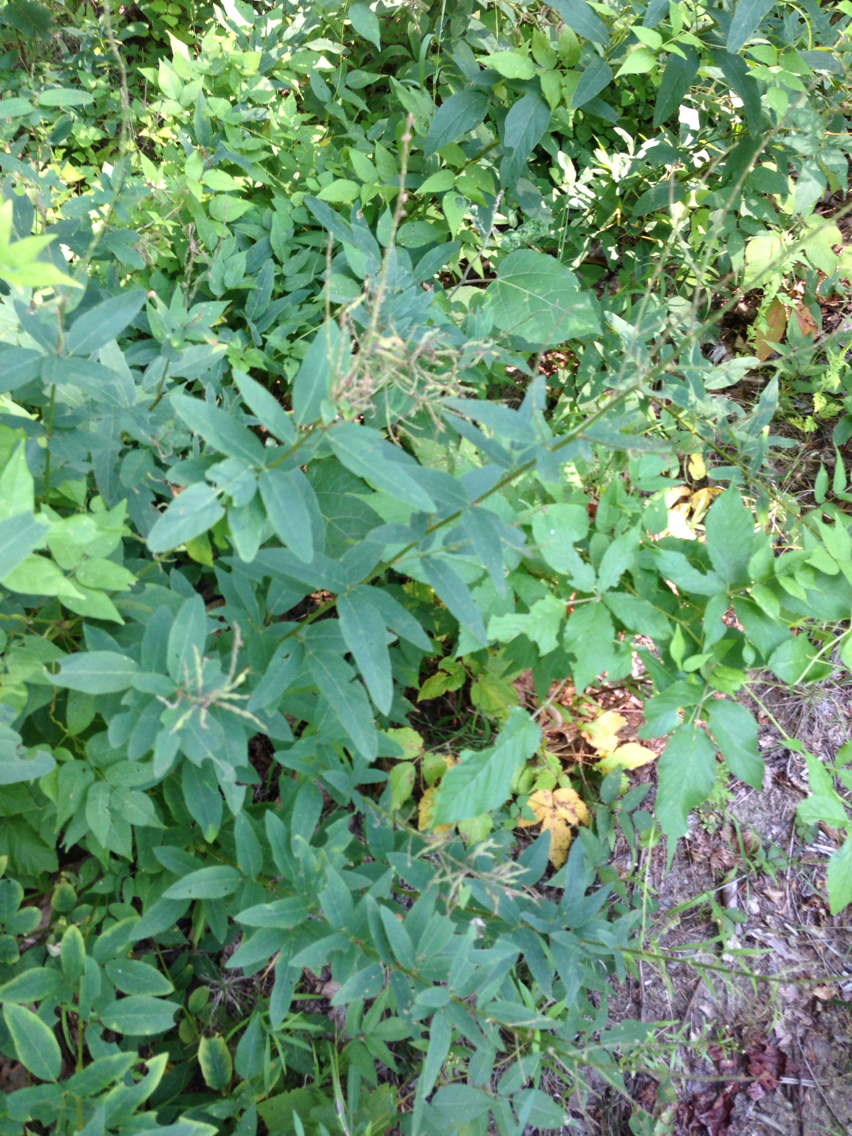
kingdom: Plantae
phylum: Tracheophyta
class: Magnoliopsida
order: Fabales
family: Fabaceae
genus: Desmodium
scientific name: Desmodium canadense
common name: Canada tick-trefoil
